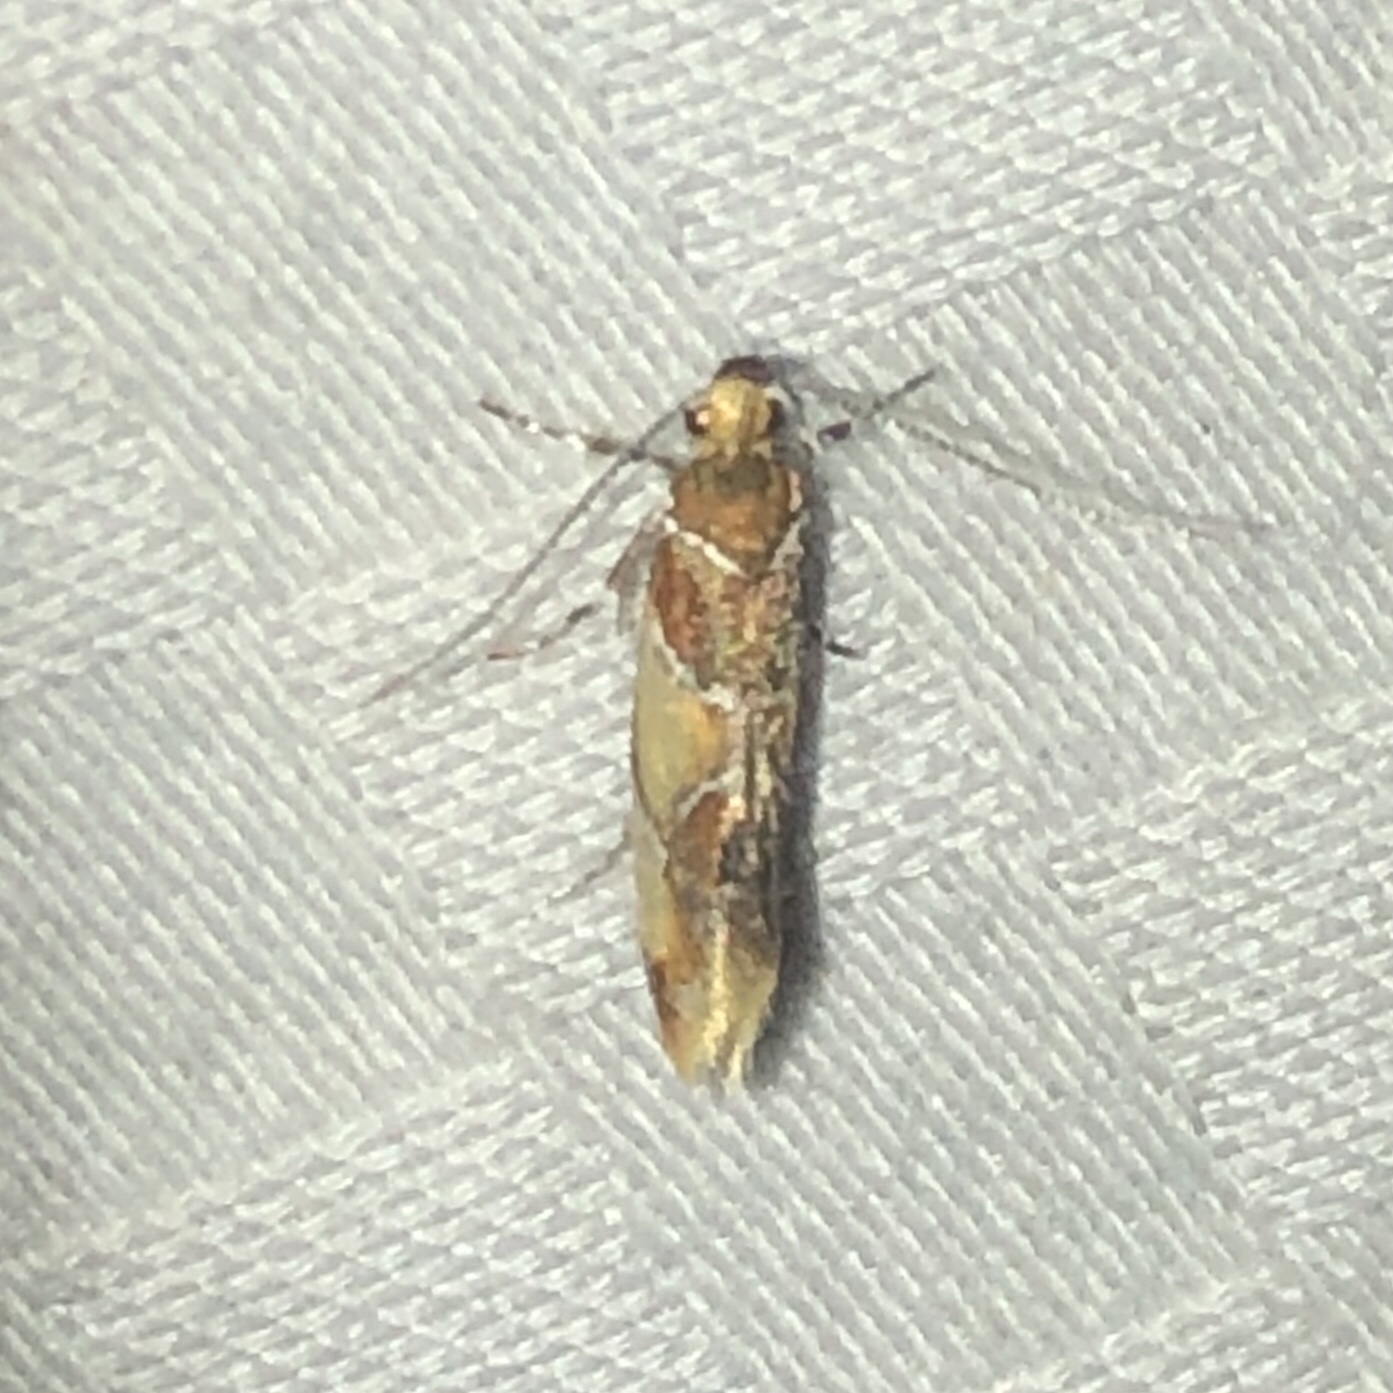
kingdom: Animalia
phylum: Arthropoda
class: Insecta
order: Lepidoptera
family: Oecophoridae
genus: Callima
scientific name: Callima argenticinctella
